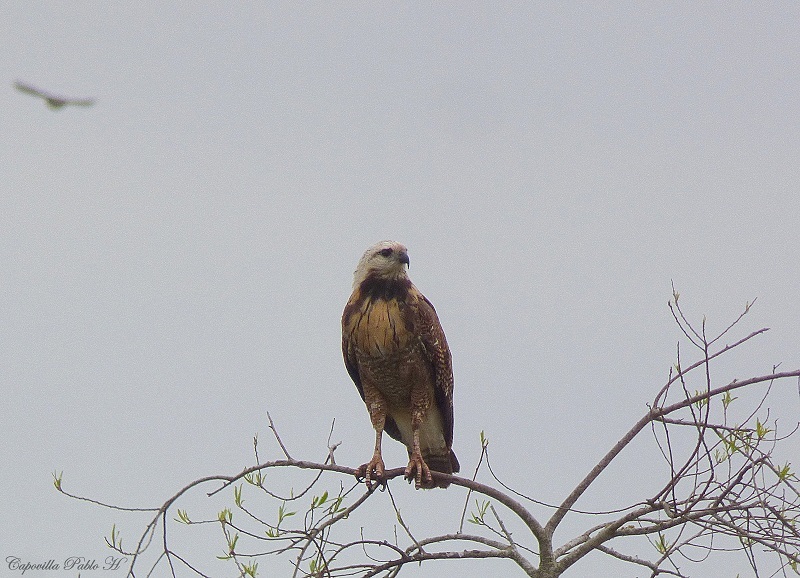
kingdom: Animalia
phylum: Chordata
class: Aves
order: Accipitriformes
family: Accipitridae
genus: Busarellus
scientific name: Busarellus nigricollis
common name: Black-collared hawk
